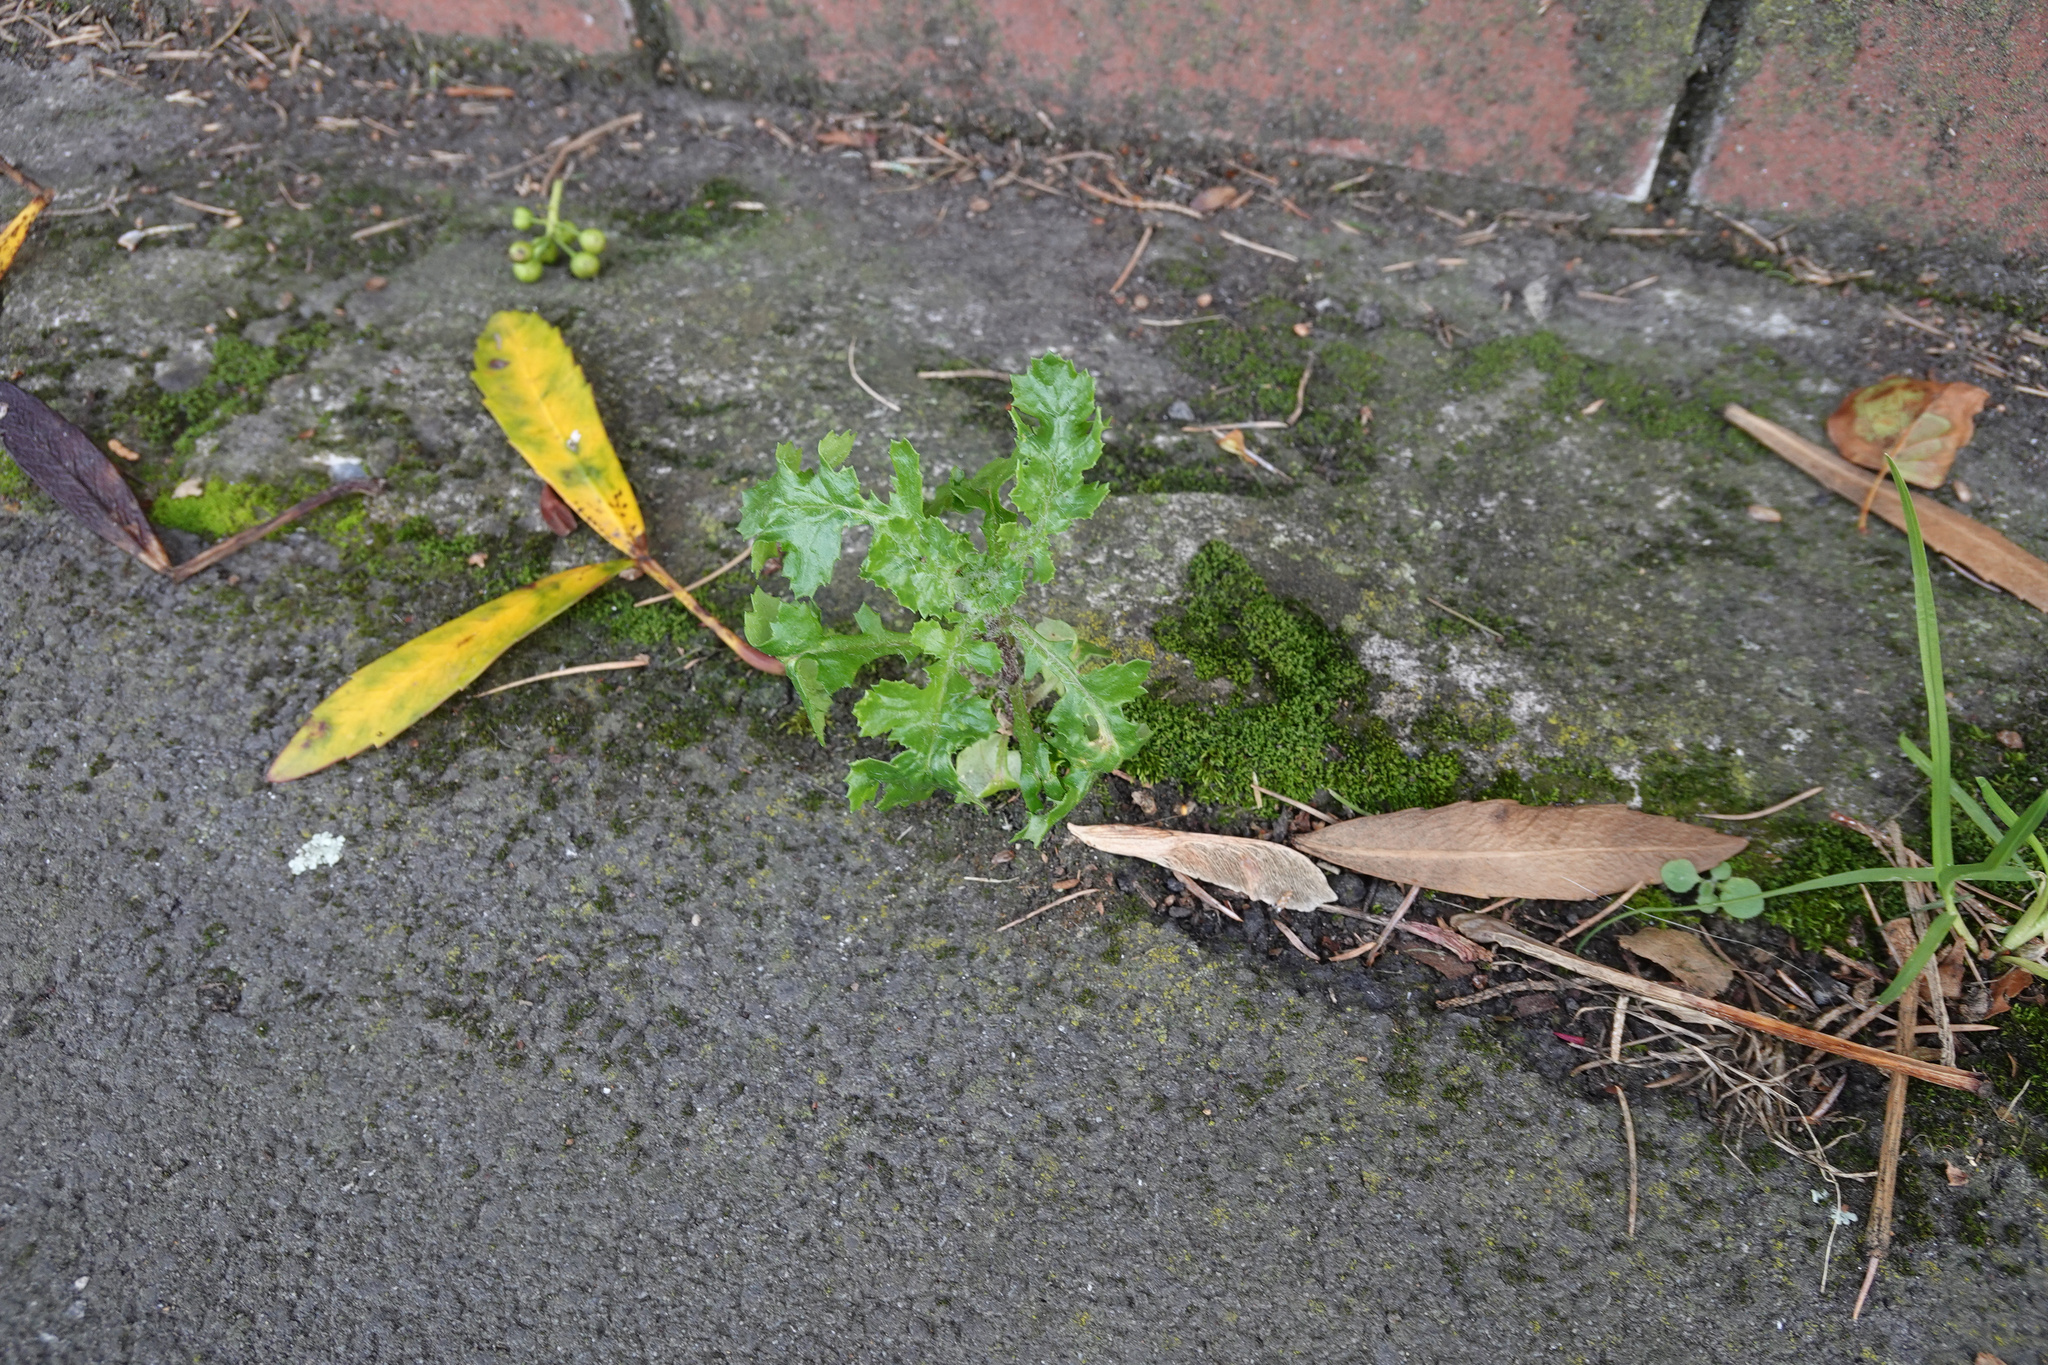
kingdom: Plantae
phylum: Tracheophyta
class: Magnoliopsida
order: Asterales
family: Asteraceae
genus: Senecio
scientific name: Senecio vulgaris
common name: Old-man-in-the-spring
